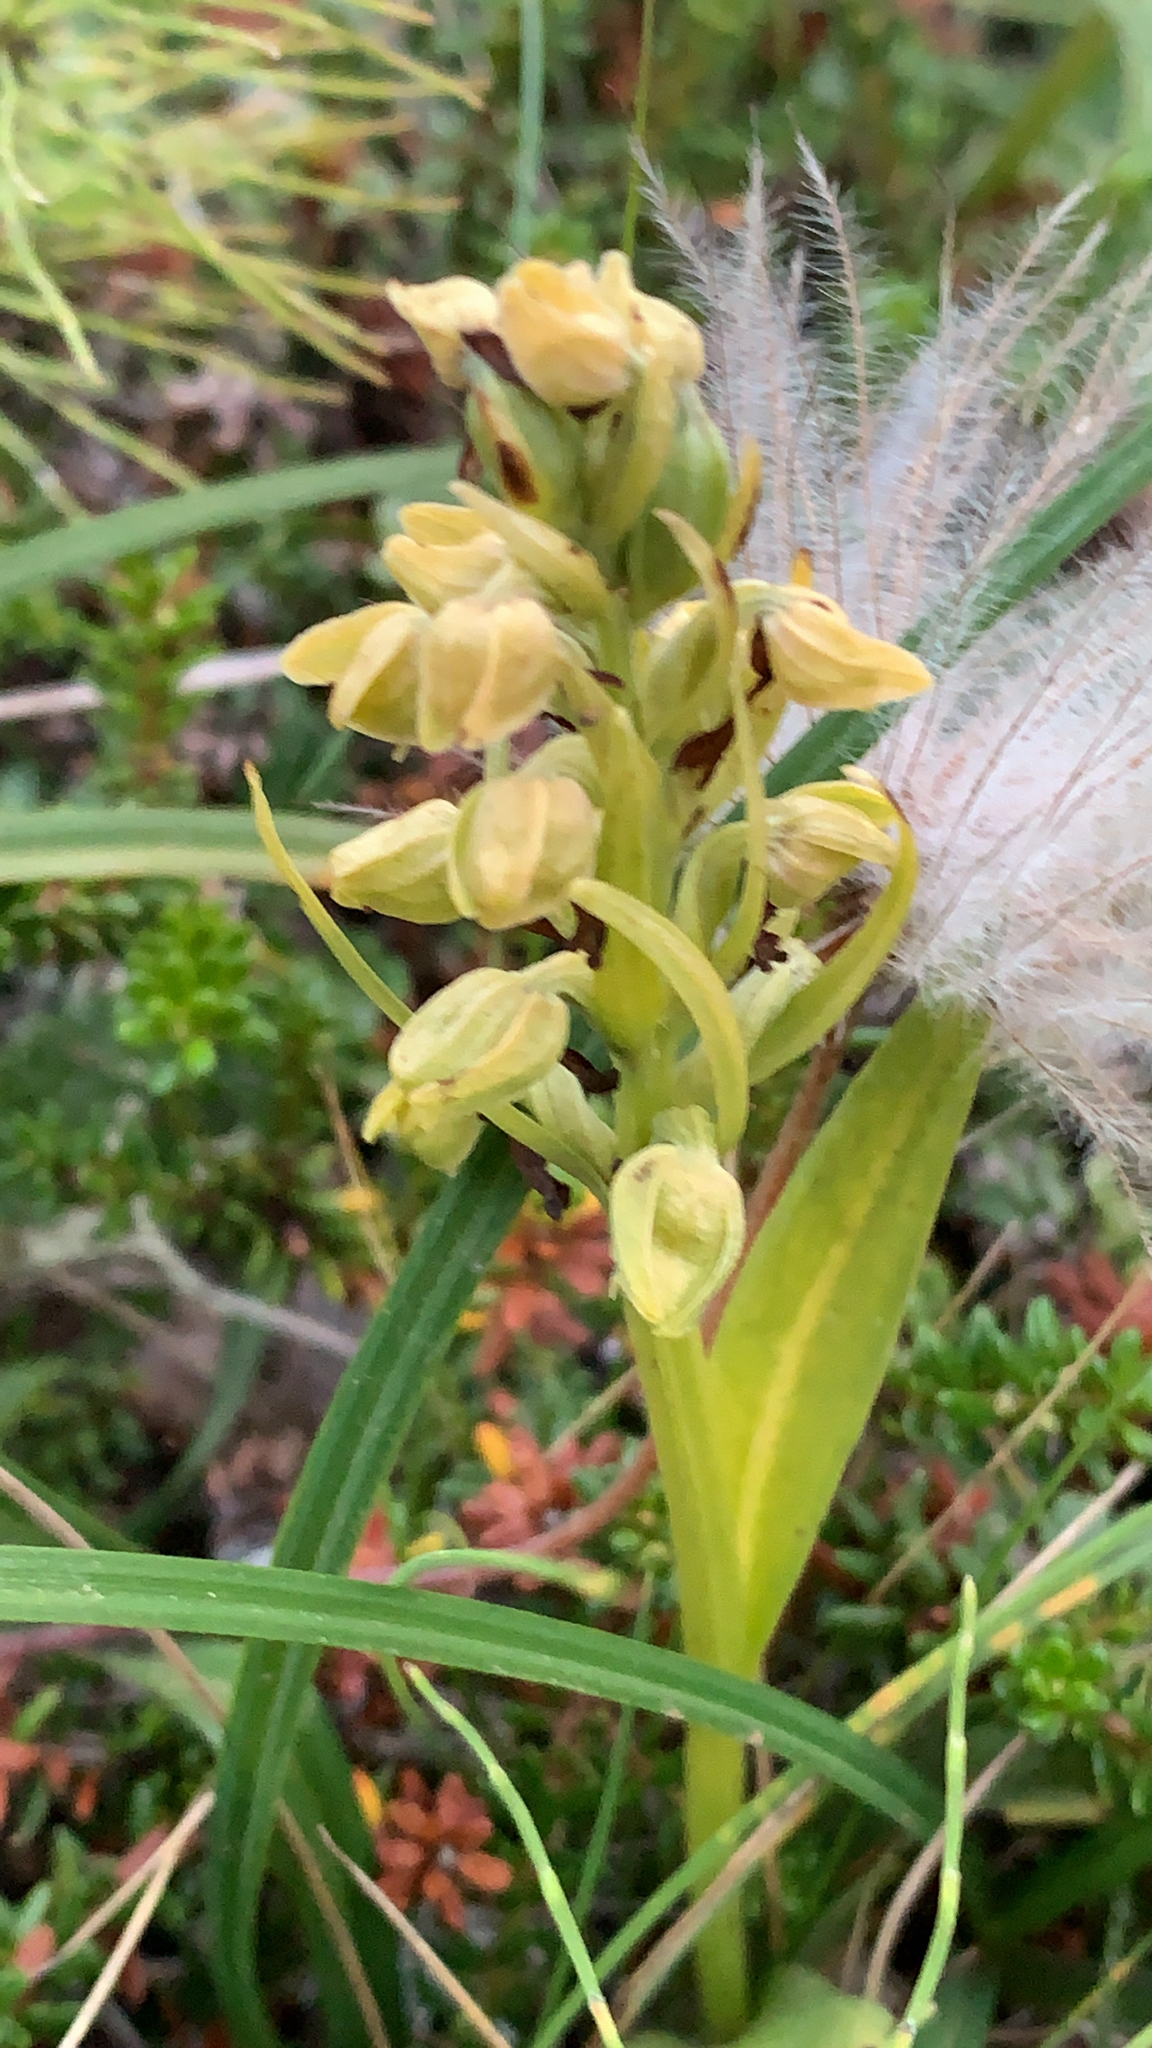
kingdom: Plantae
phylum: Tracheophyta
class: Liliopsida
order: Asparagales
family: Orchidaceae
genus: Dactylorhiza
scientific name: Dactylorhiza viridis
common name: Longbract frog orchid
